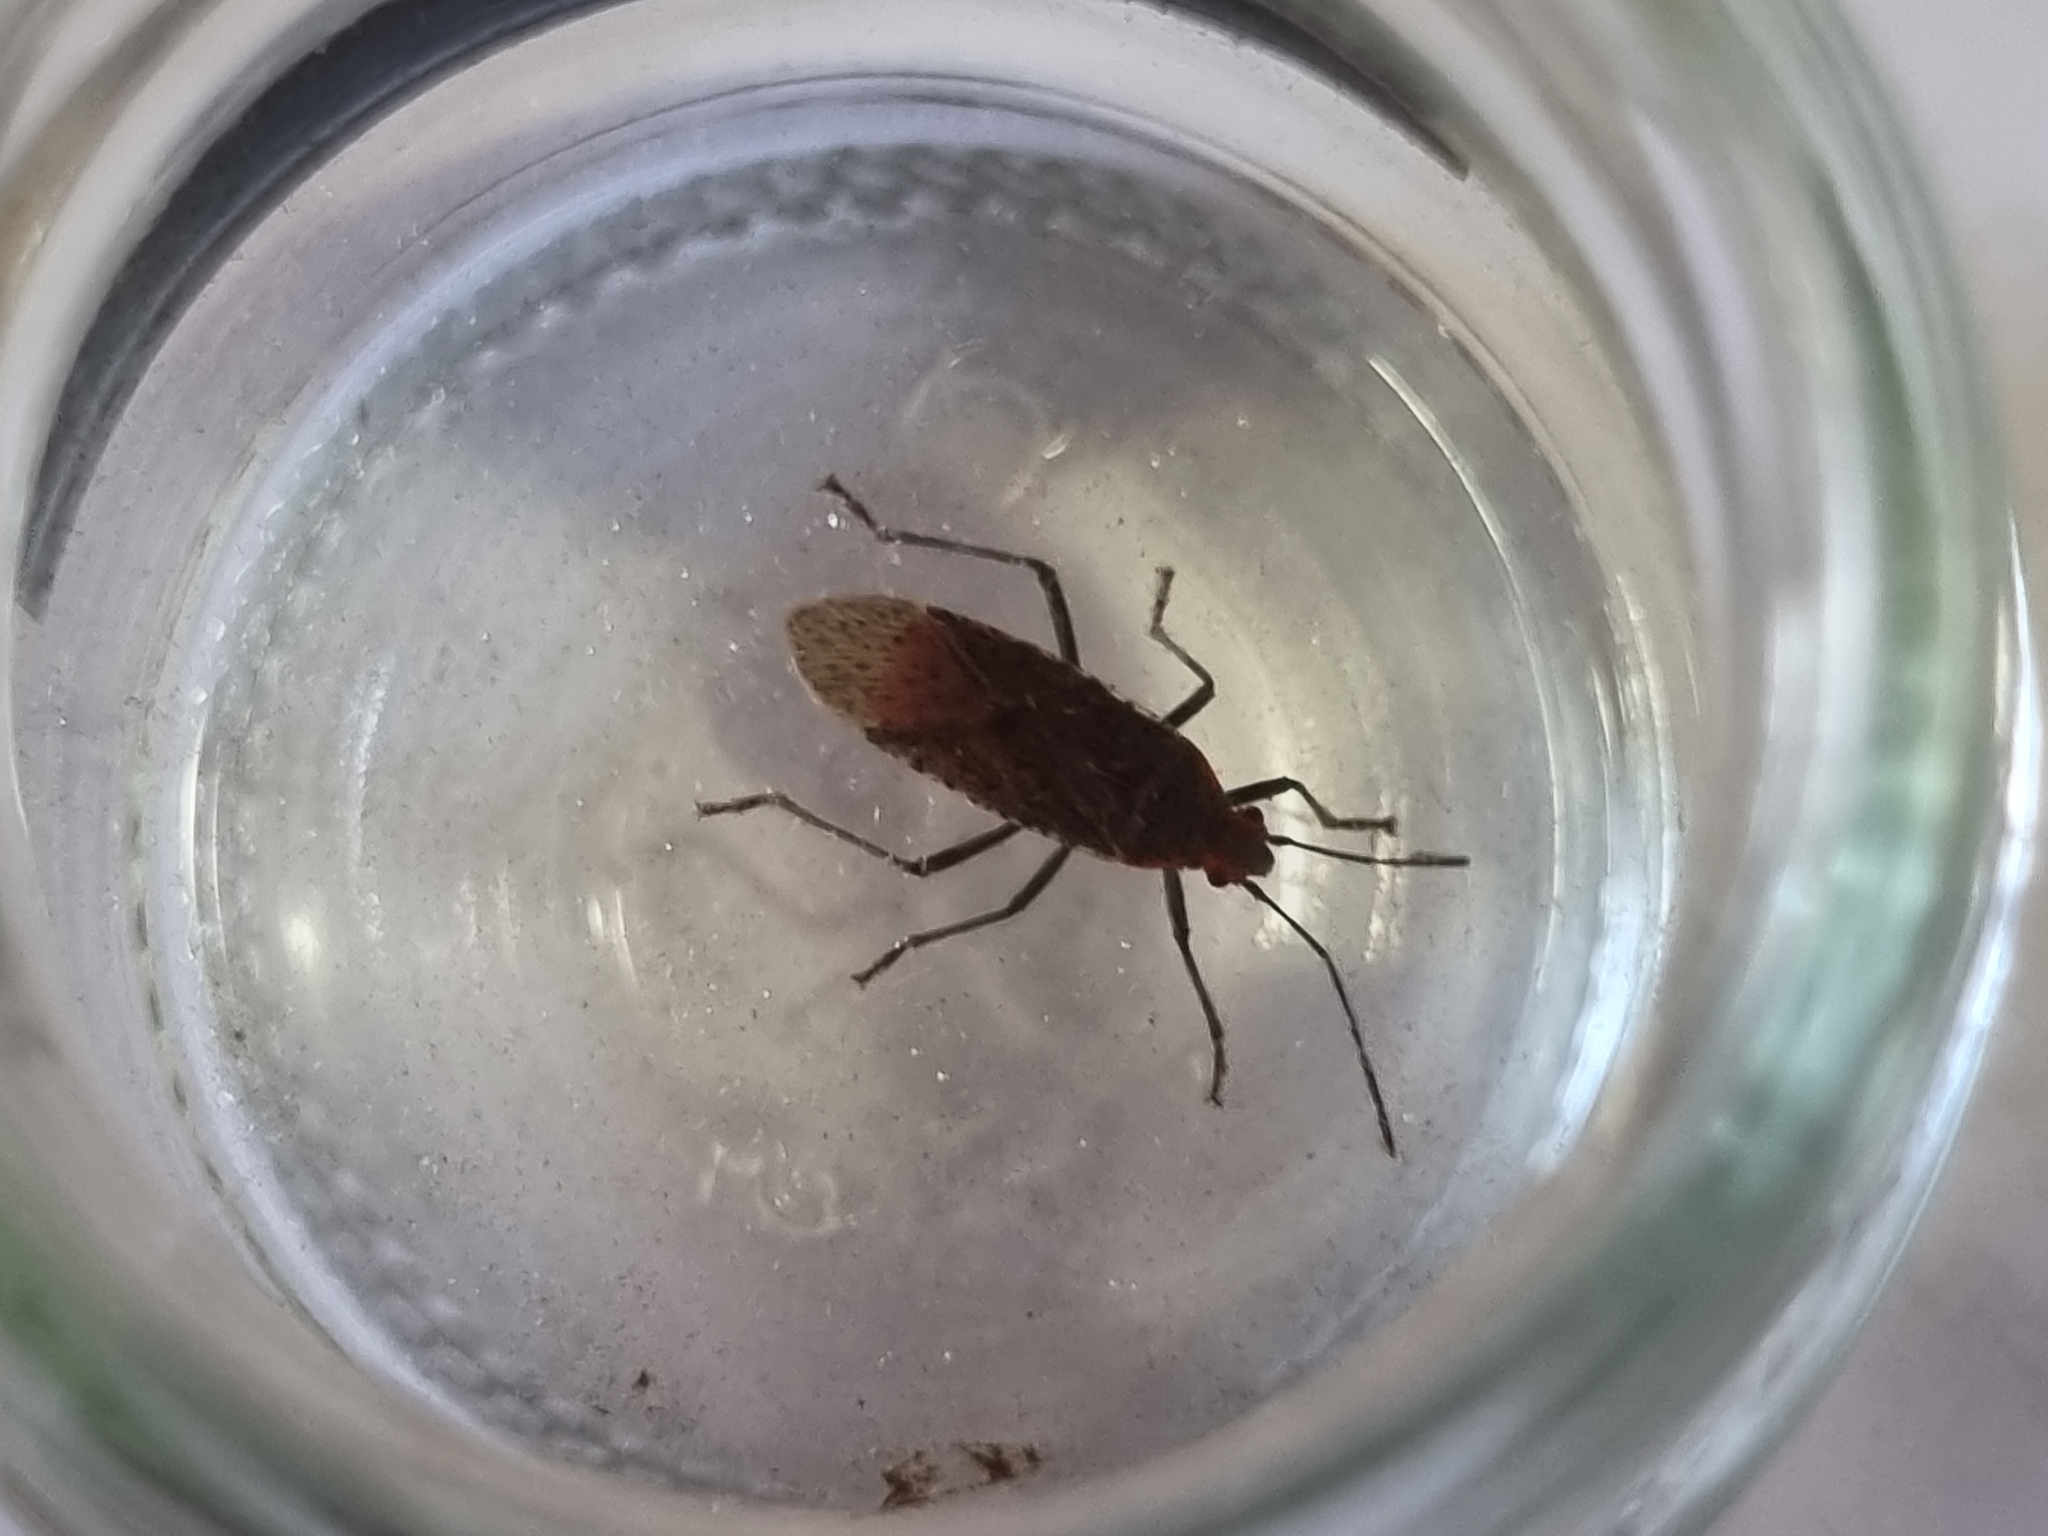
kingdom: Animalia
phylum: Arthropoda
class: Insecta
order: Hemiptera
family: Rhopalidae
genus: Jadera
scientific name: Jadera coturnix
